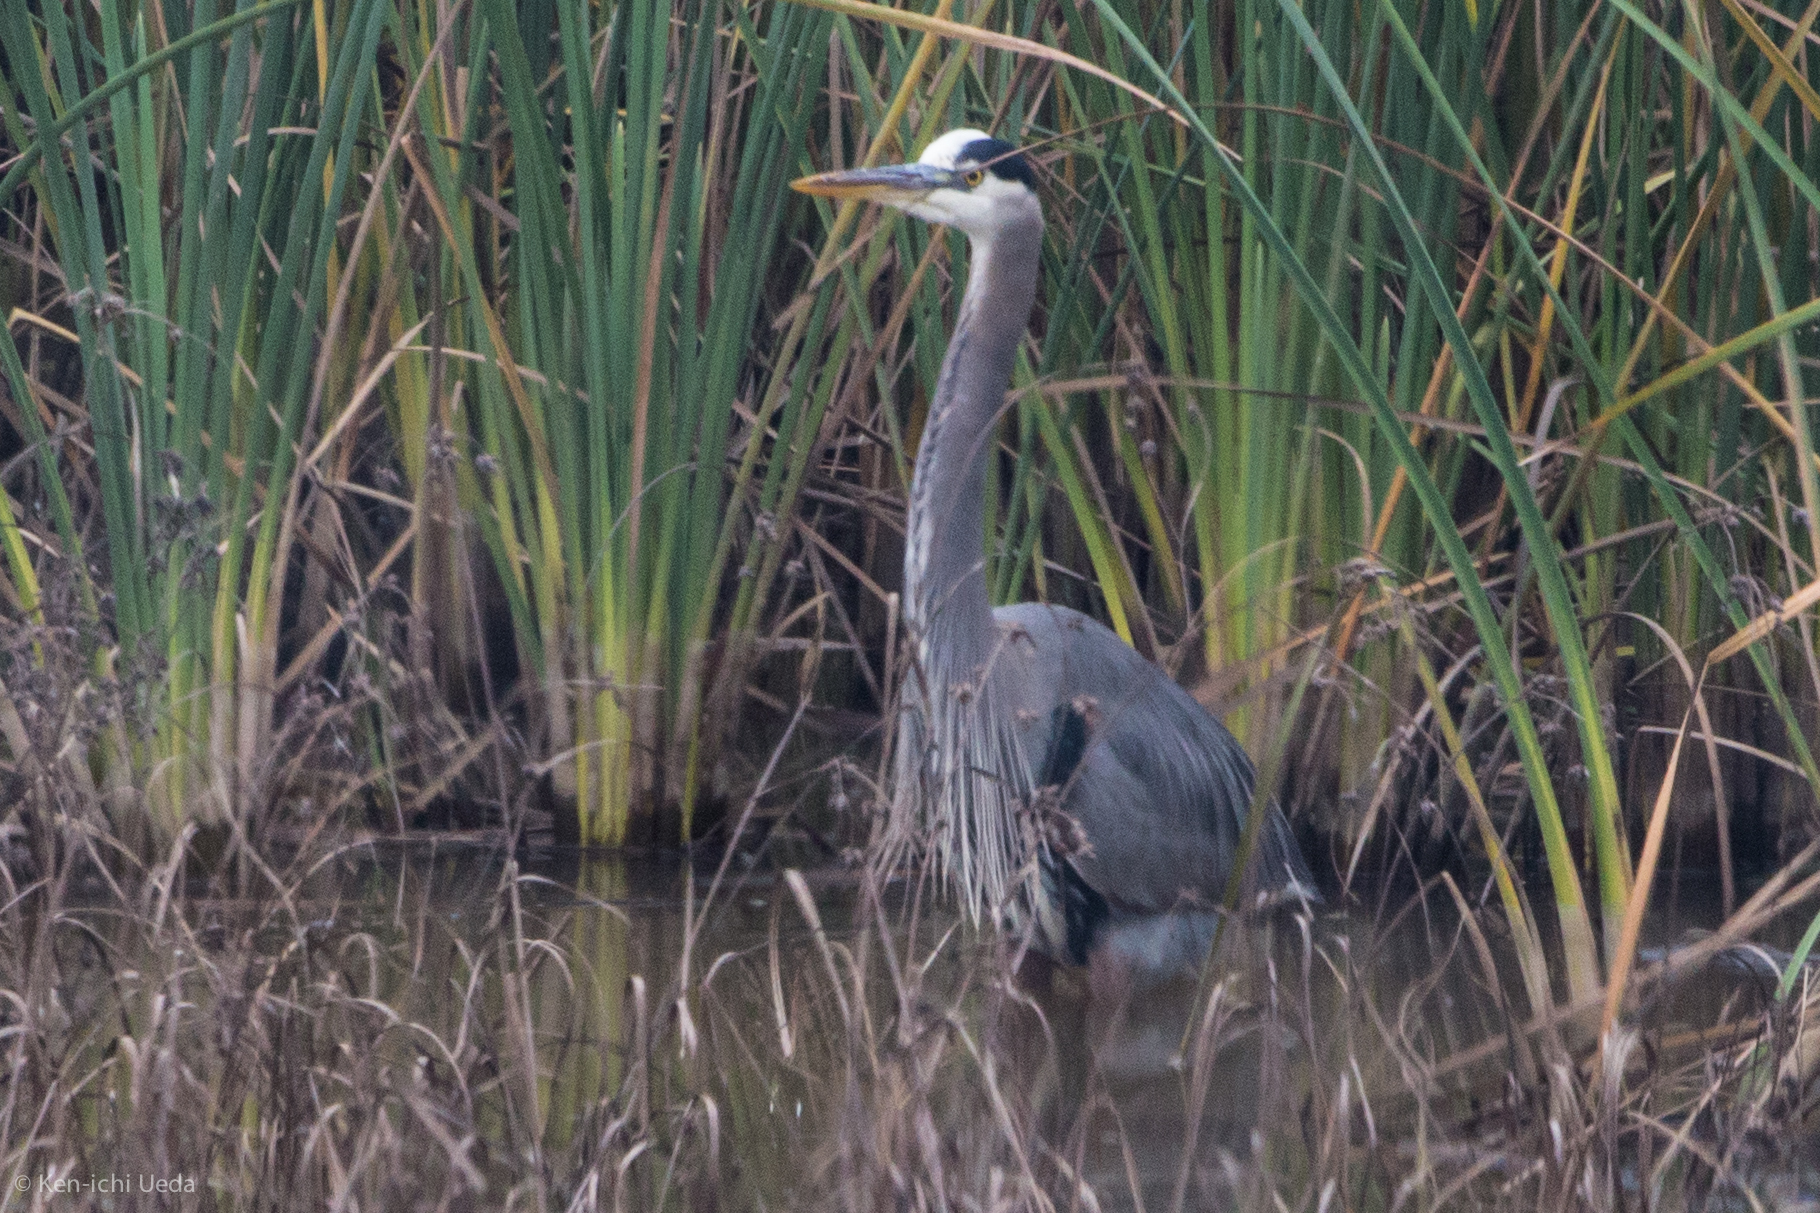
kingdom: Animalia
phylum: Chordata
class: Aves
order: Pelecaniformes
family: Ardeidae
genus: Ardea
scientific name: Ardea herodias
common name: Great blue heron
